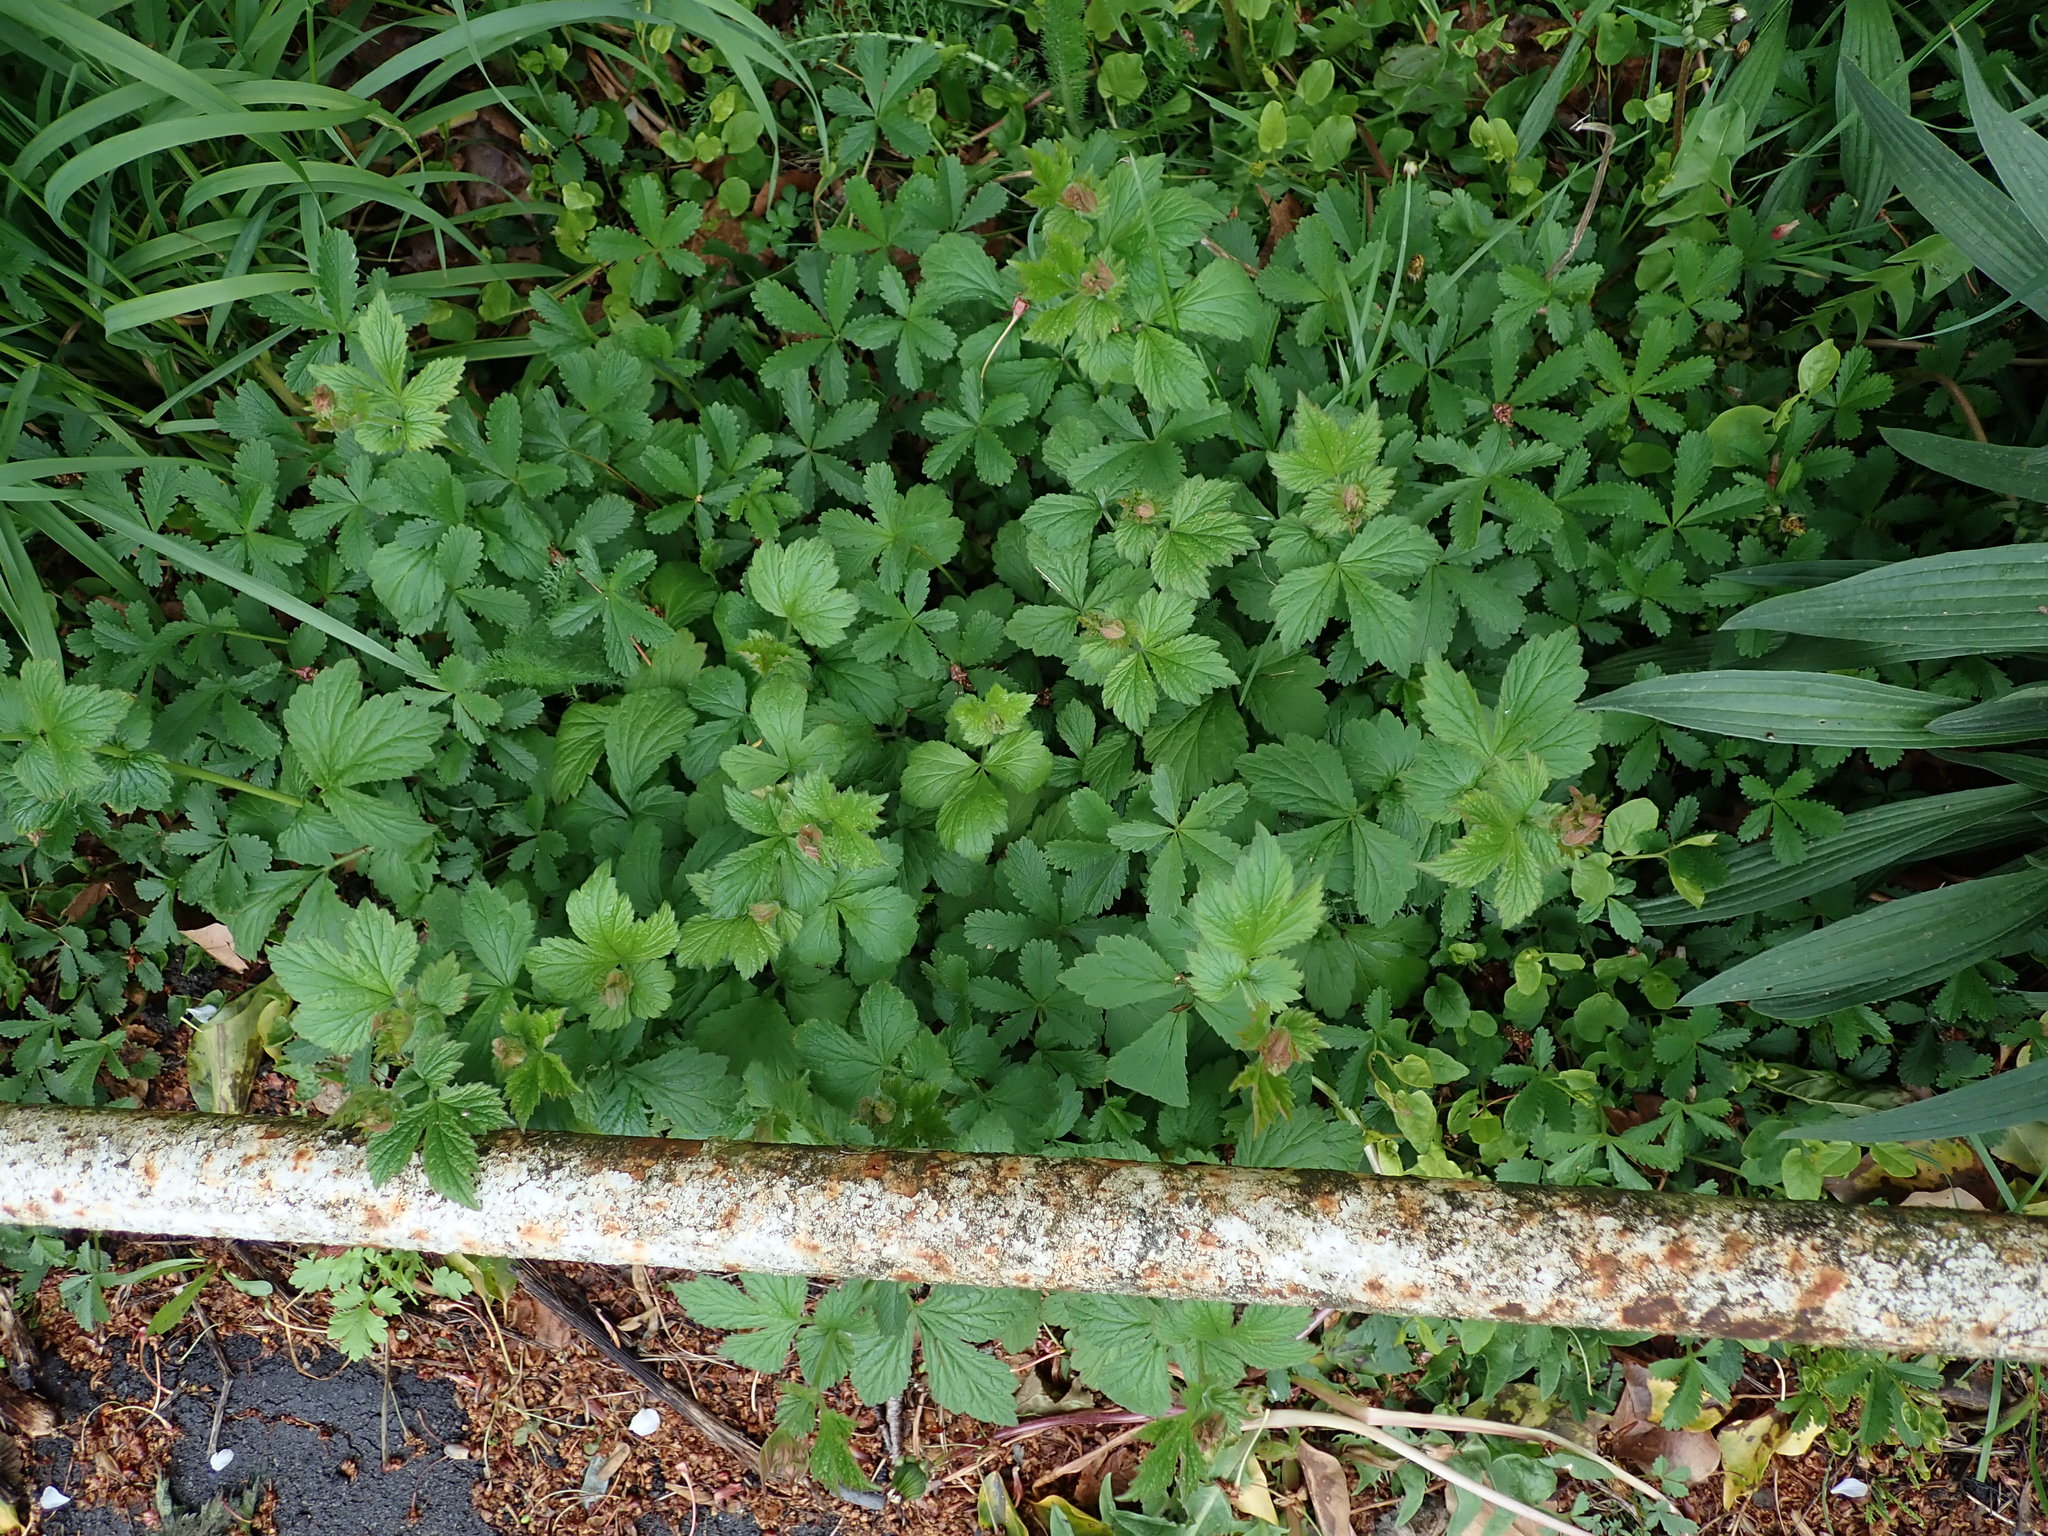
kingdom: Plantae
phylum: Tracheophyta
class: Magnoliopsida
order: Rosales
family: Rosaceae
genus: Potentilla
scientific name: Potentilla reptans
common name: Creeping cinquefoil
